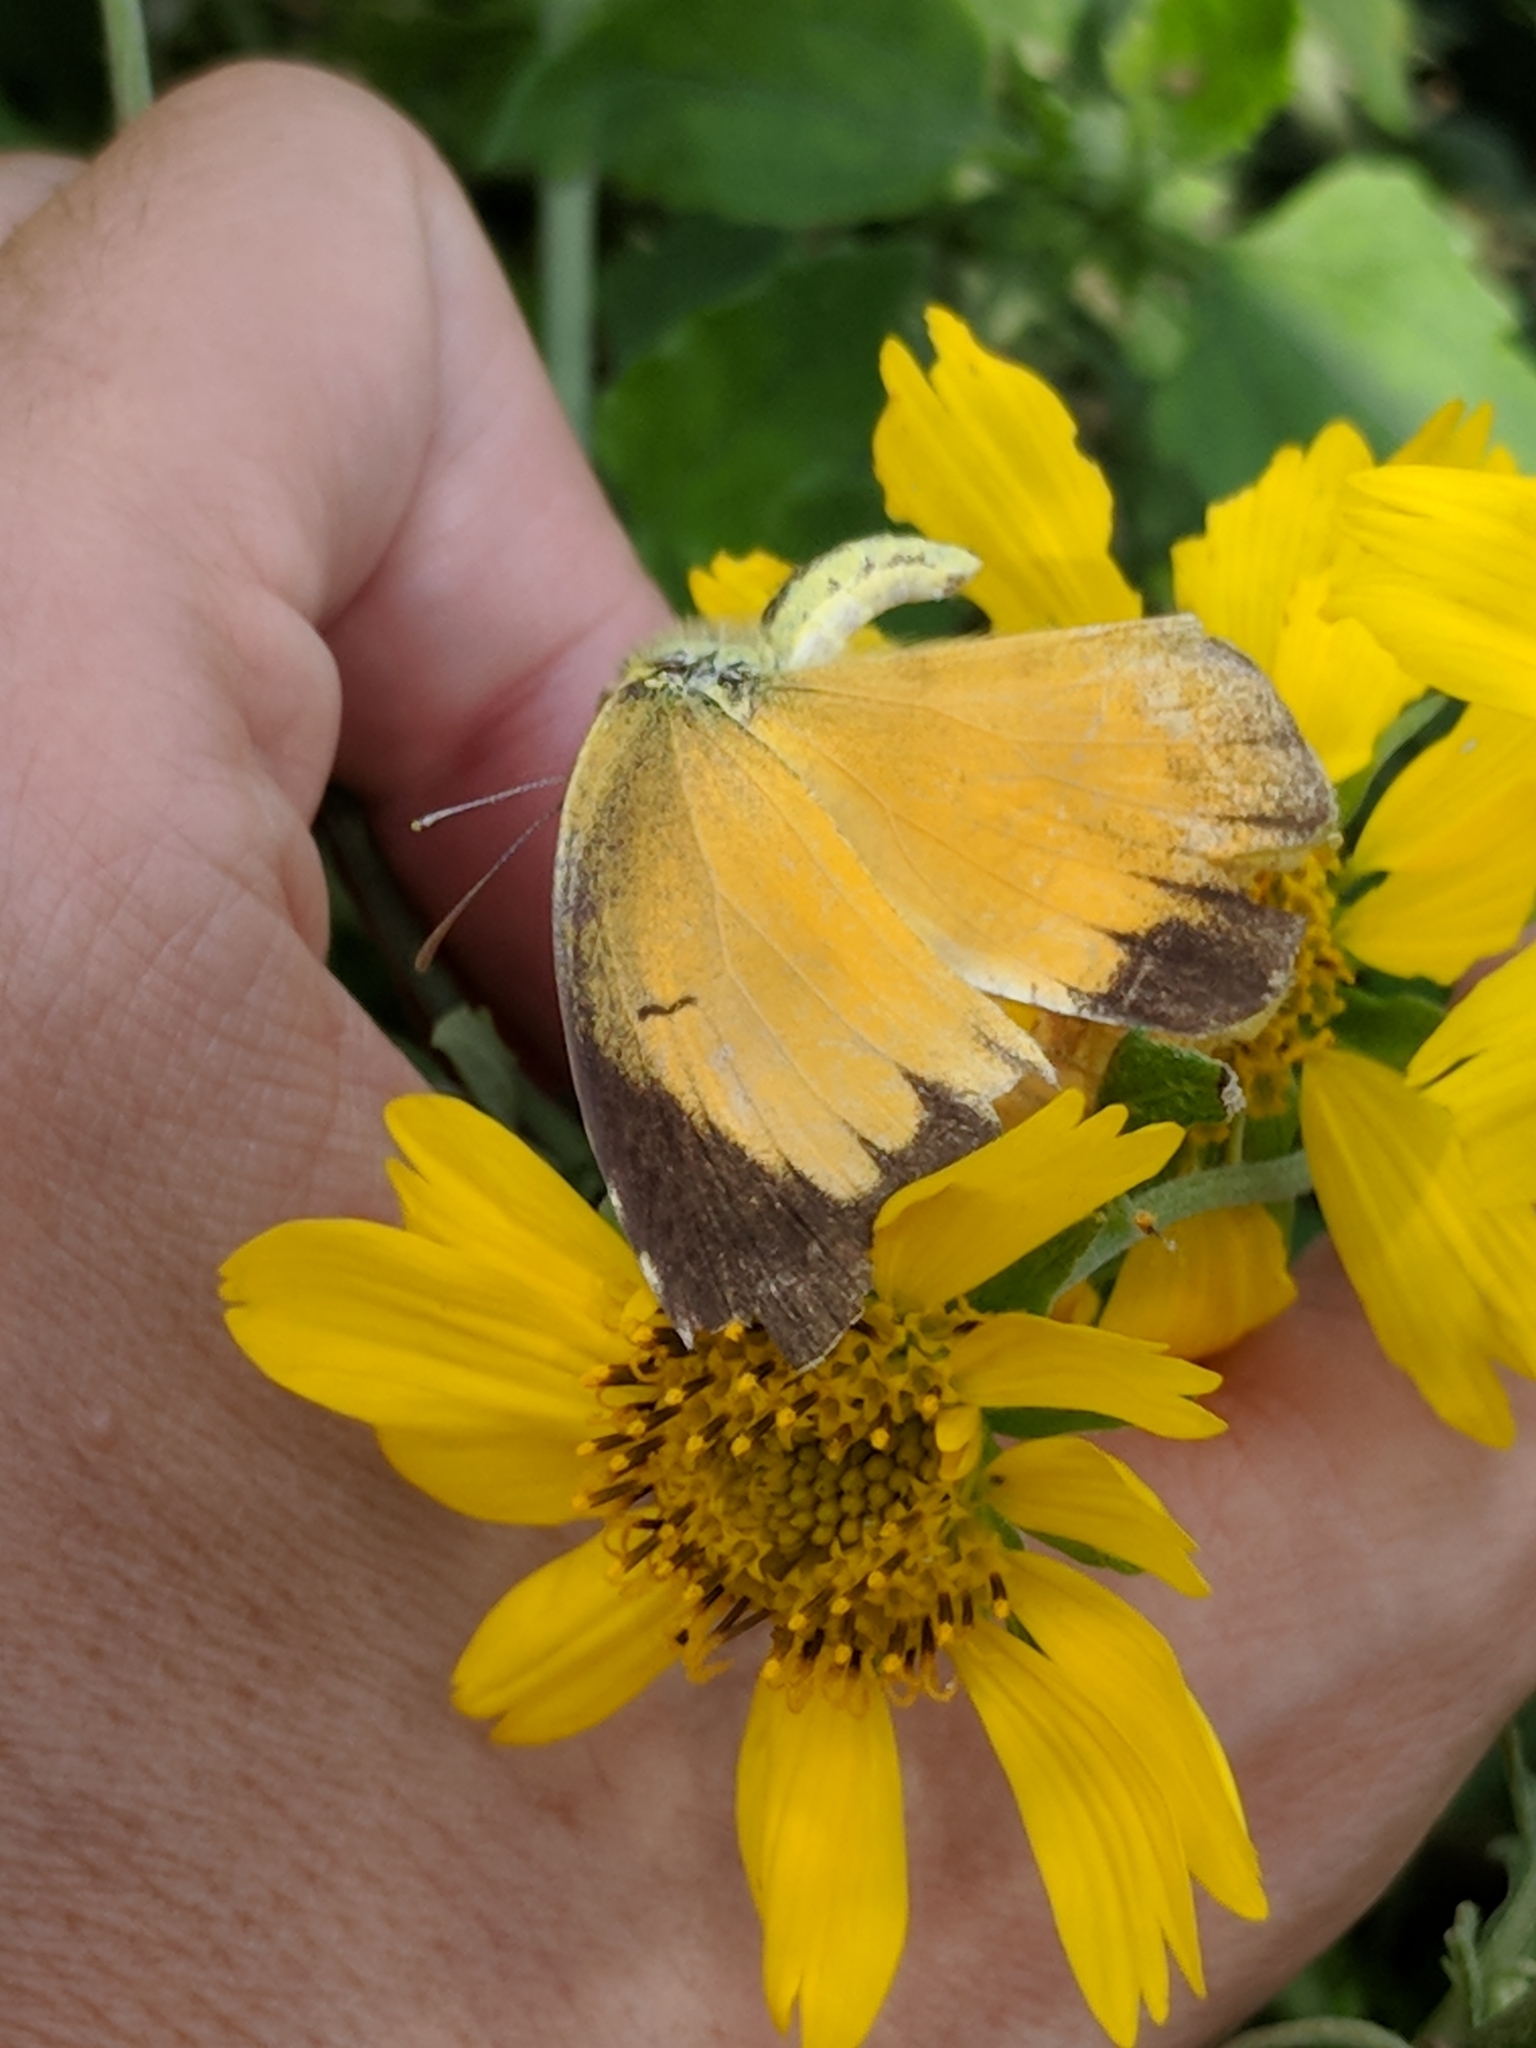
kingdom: Animalia
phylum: Arthropoda
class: Insecta
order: Lepidoptera
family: Pieridae
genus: Abaeis
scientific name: Abaeis nicippe
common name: Sleepy orange
